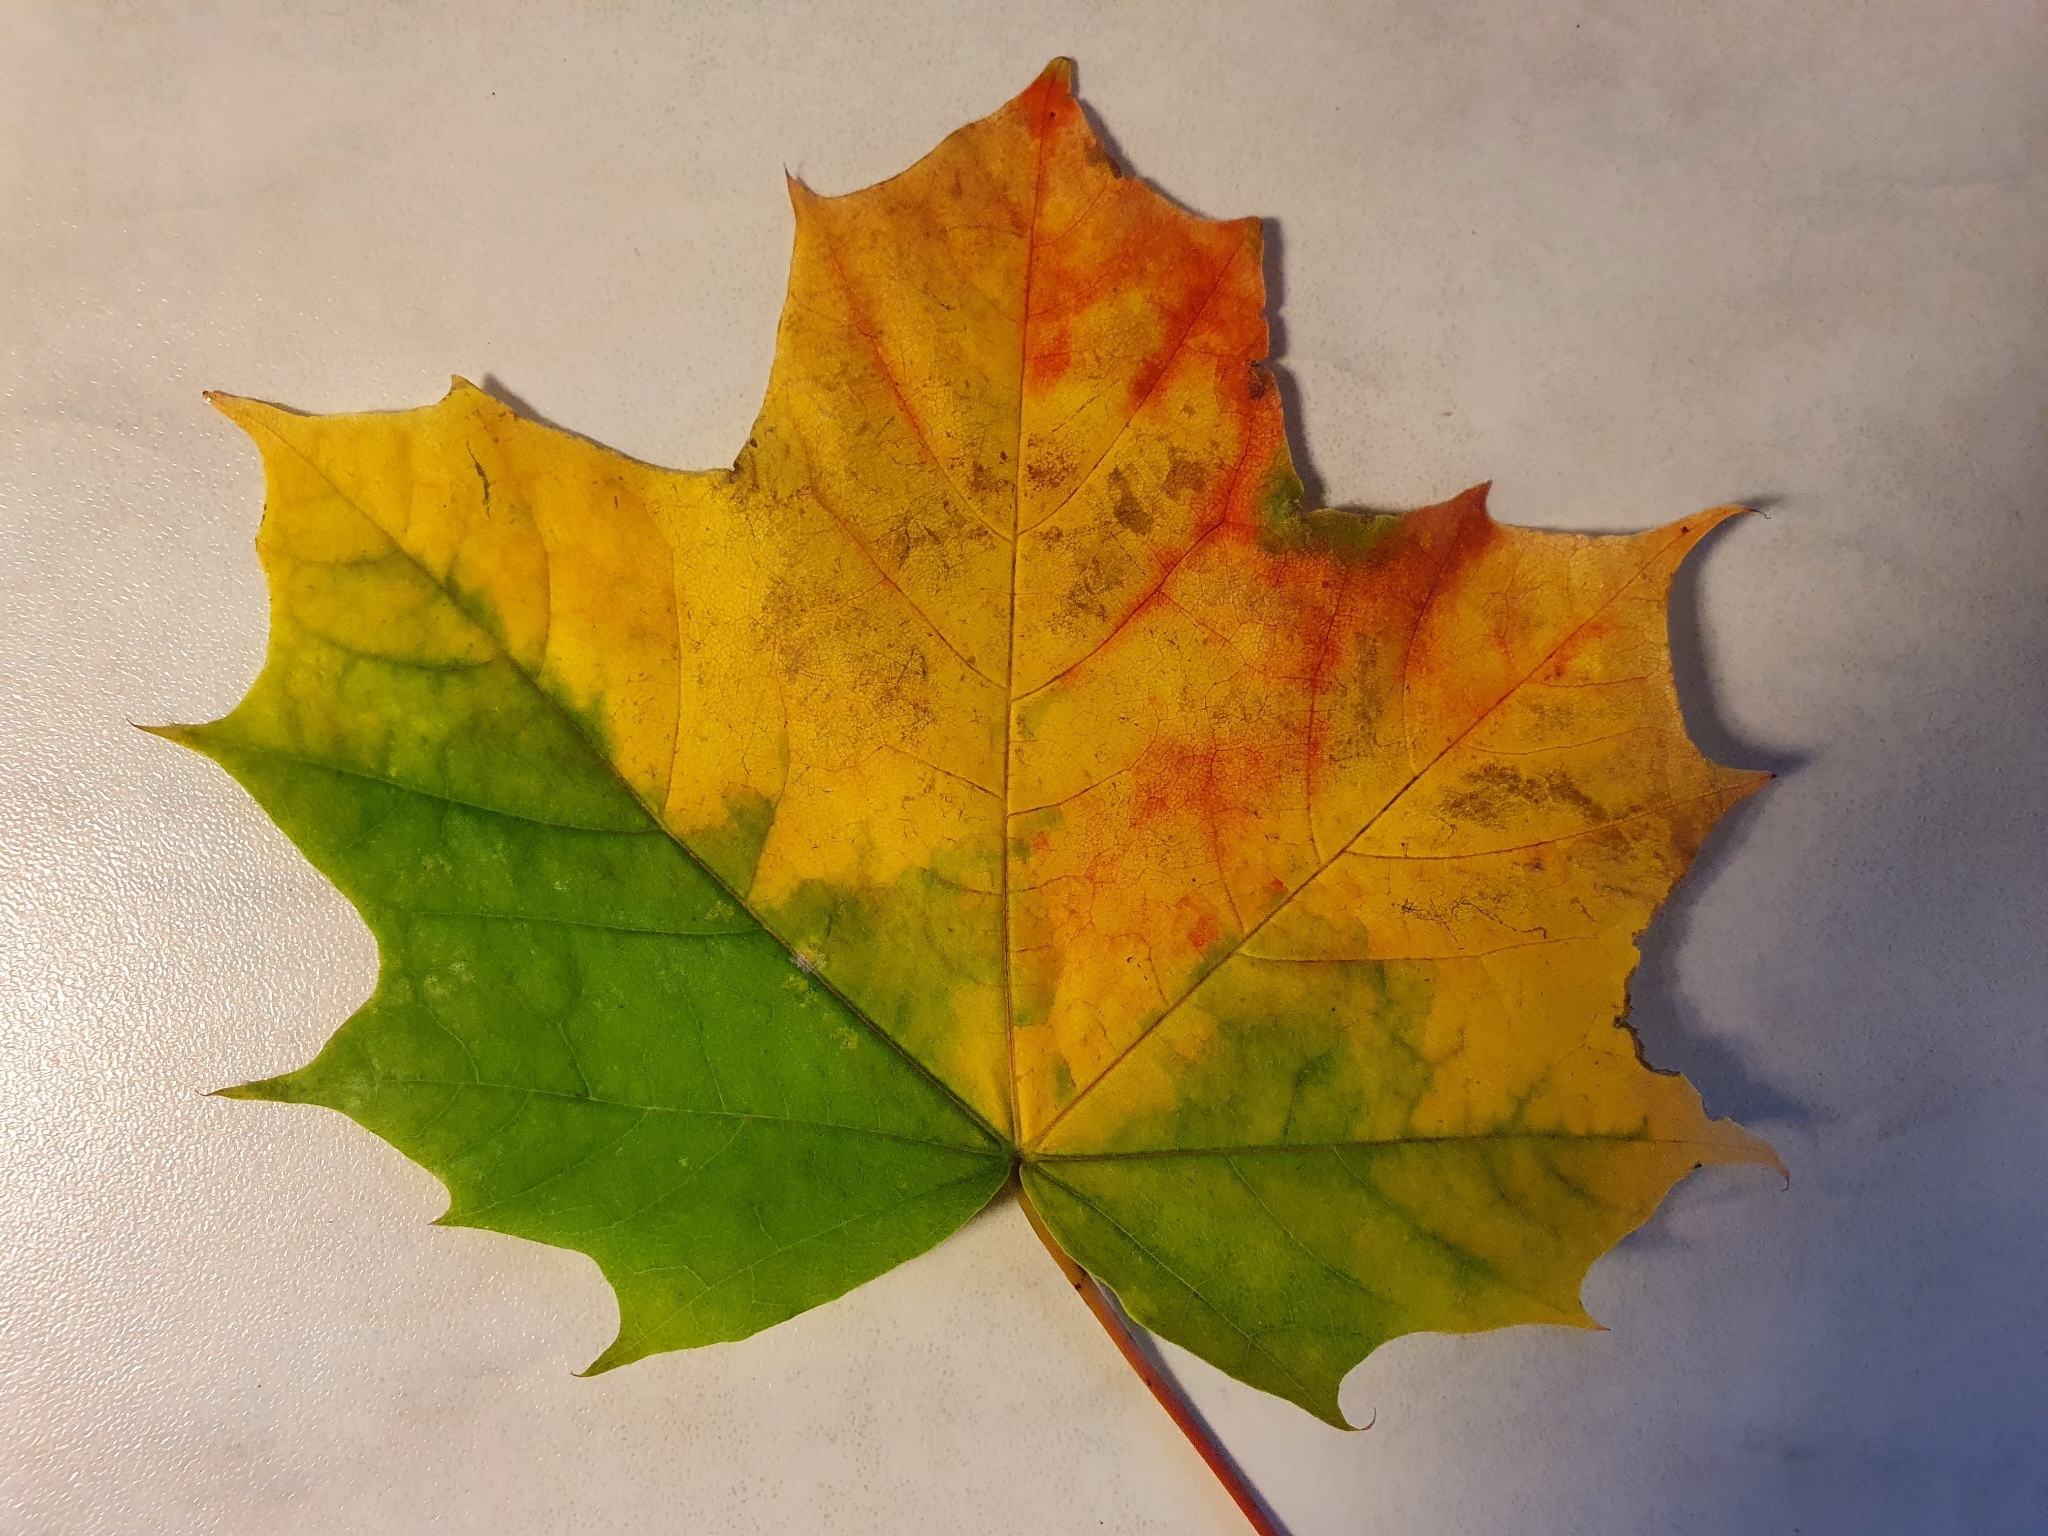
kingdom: Plantae
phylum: Tracheophyta
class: Magnoliopsida
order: Sapindales
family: Sapindaceae
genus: Acer
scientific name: Acer platanoides
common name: Norway maple
